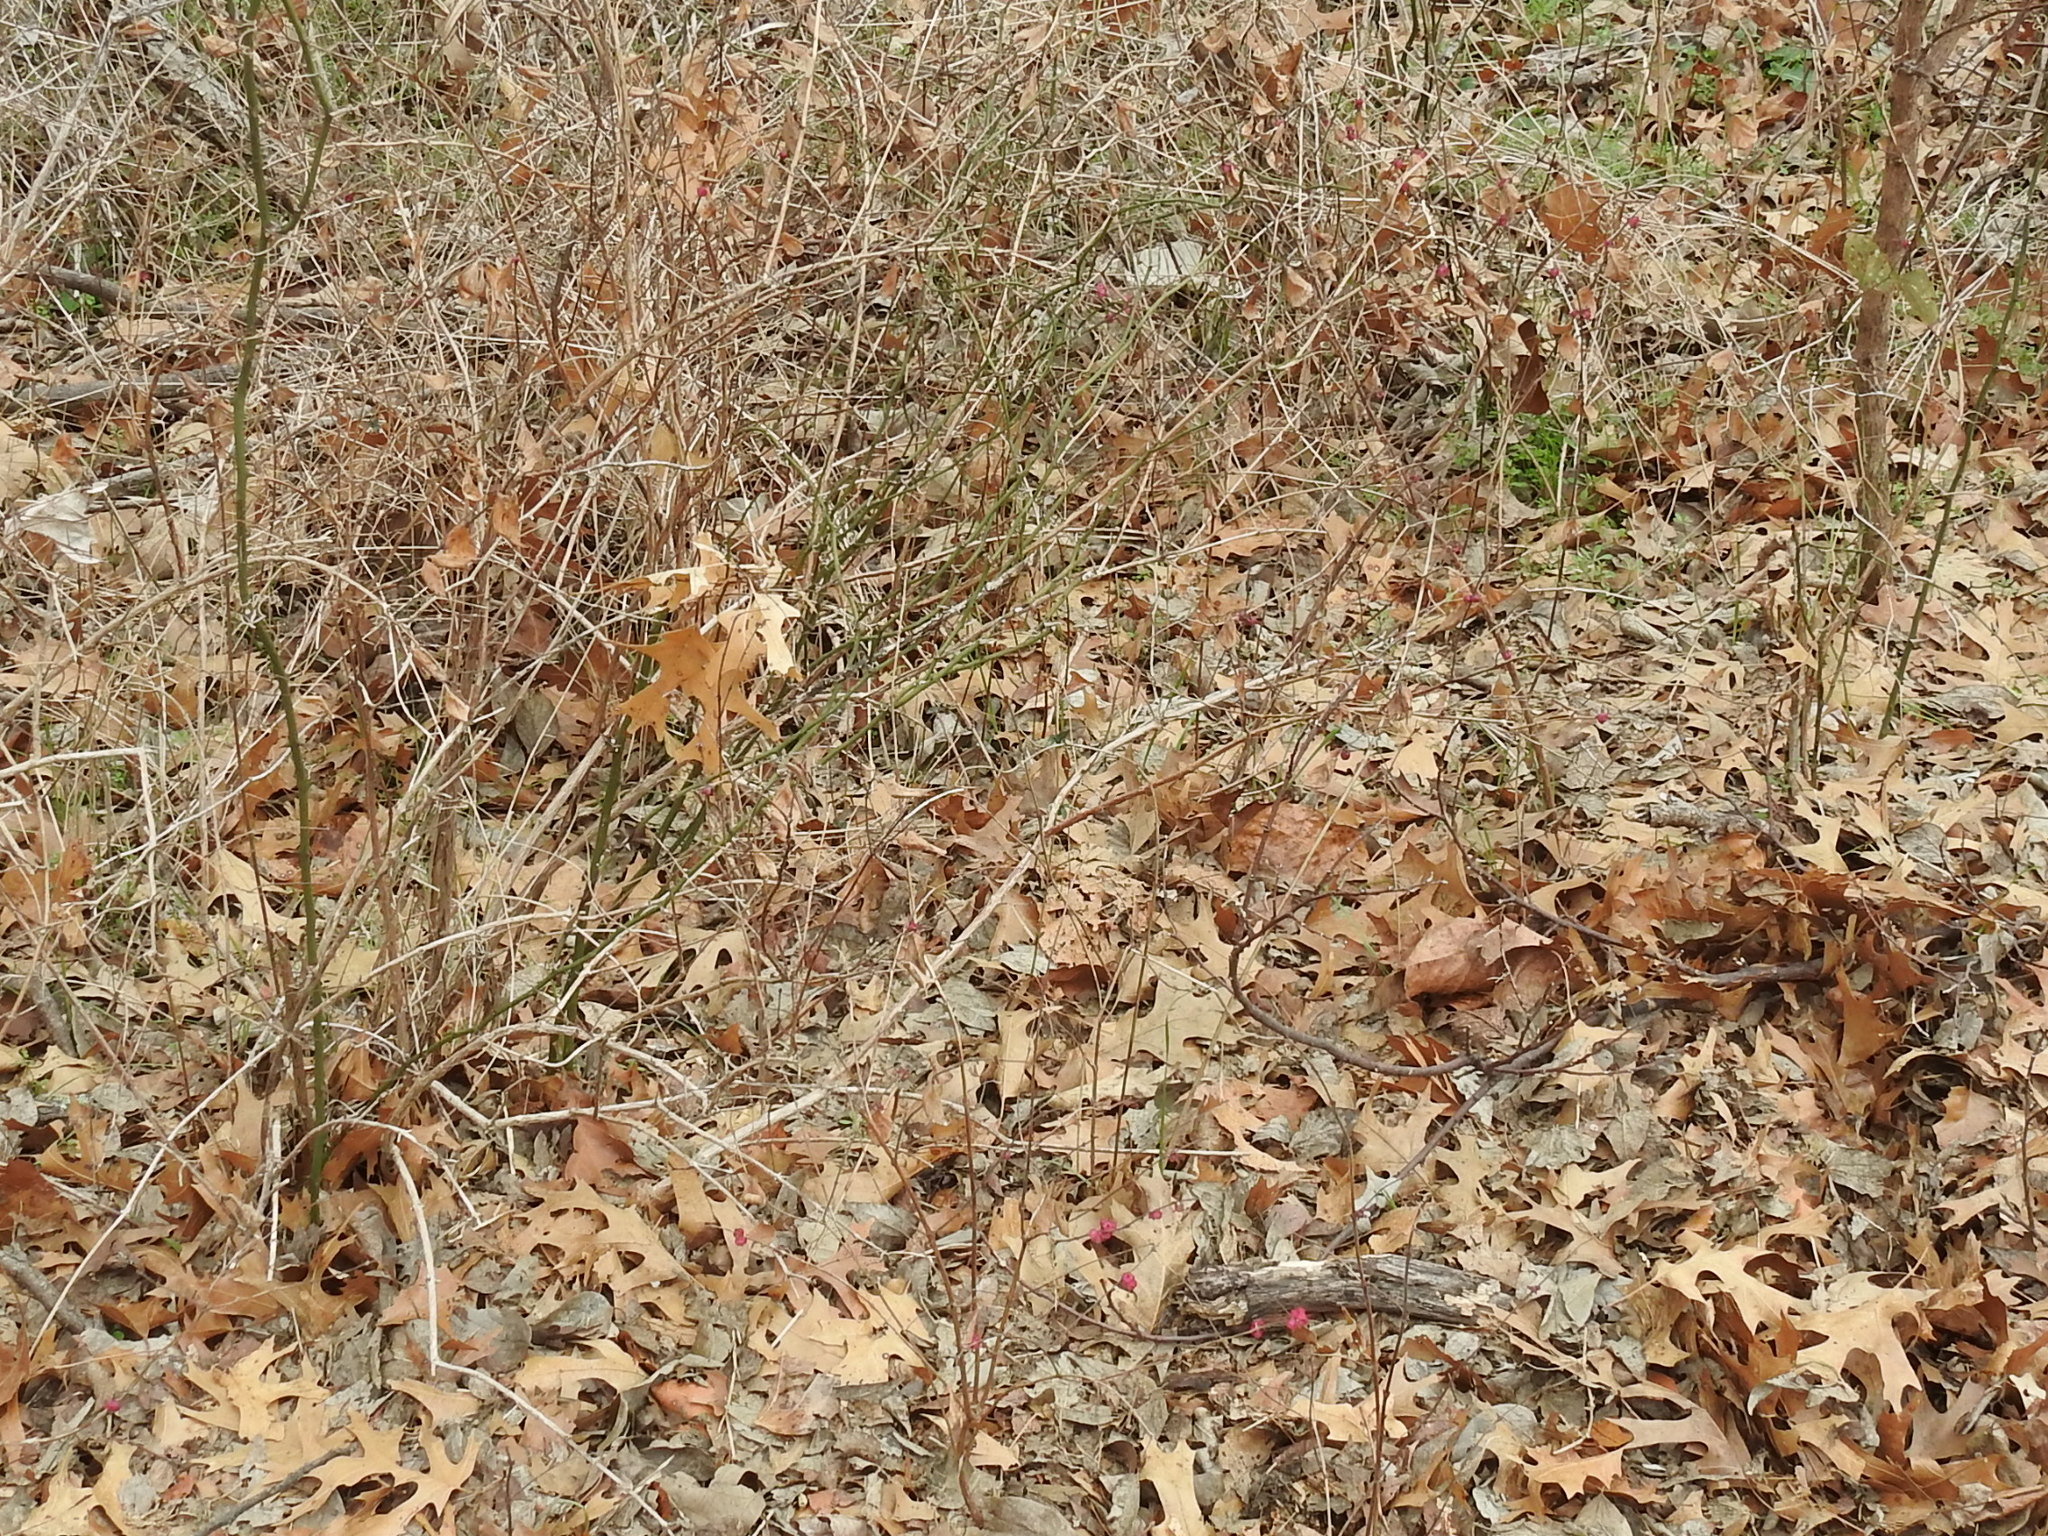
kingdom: Plantae
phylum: Tracheophyta
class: Magnoliopsida
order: Dipsacales
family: Caprifoliaceae
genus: Symphoricarpos
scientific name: Symphoricarpos orbiculatus
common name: Coralberry
